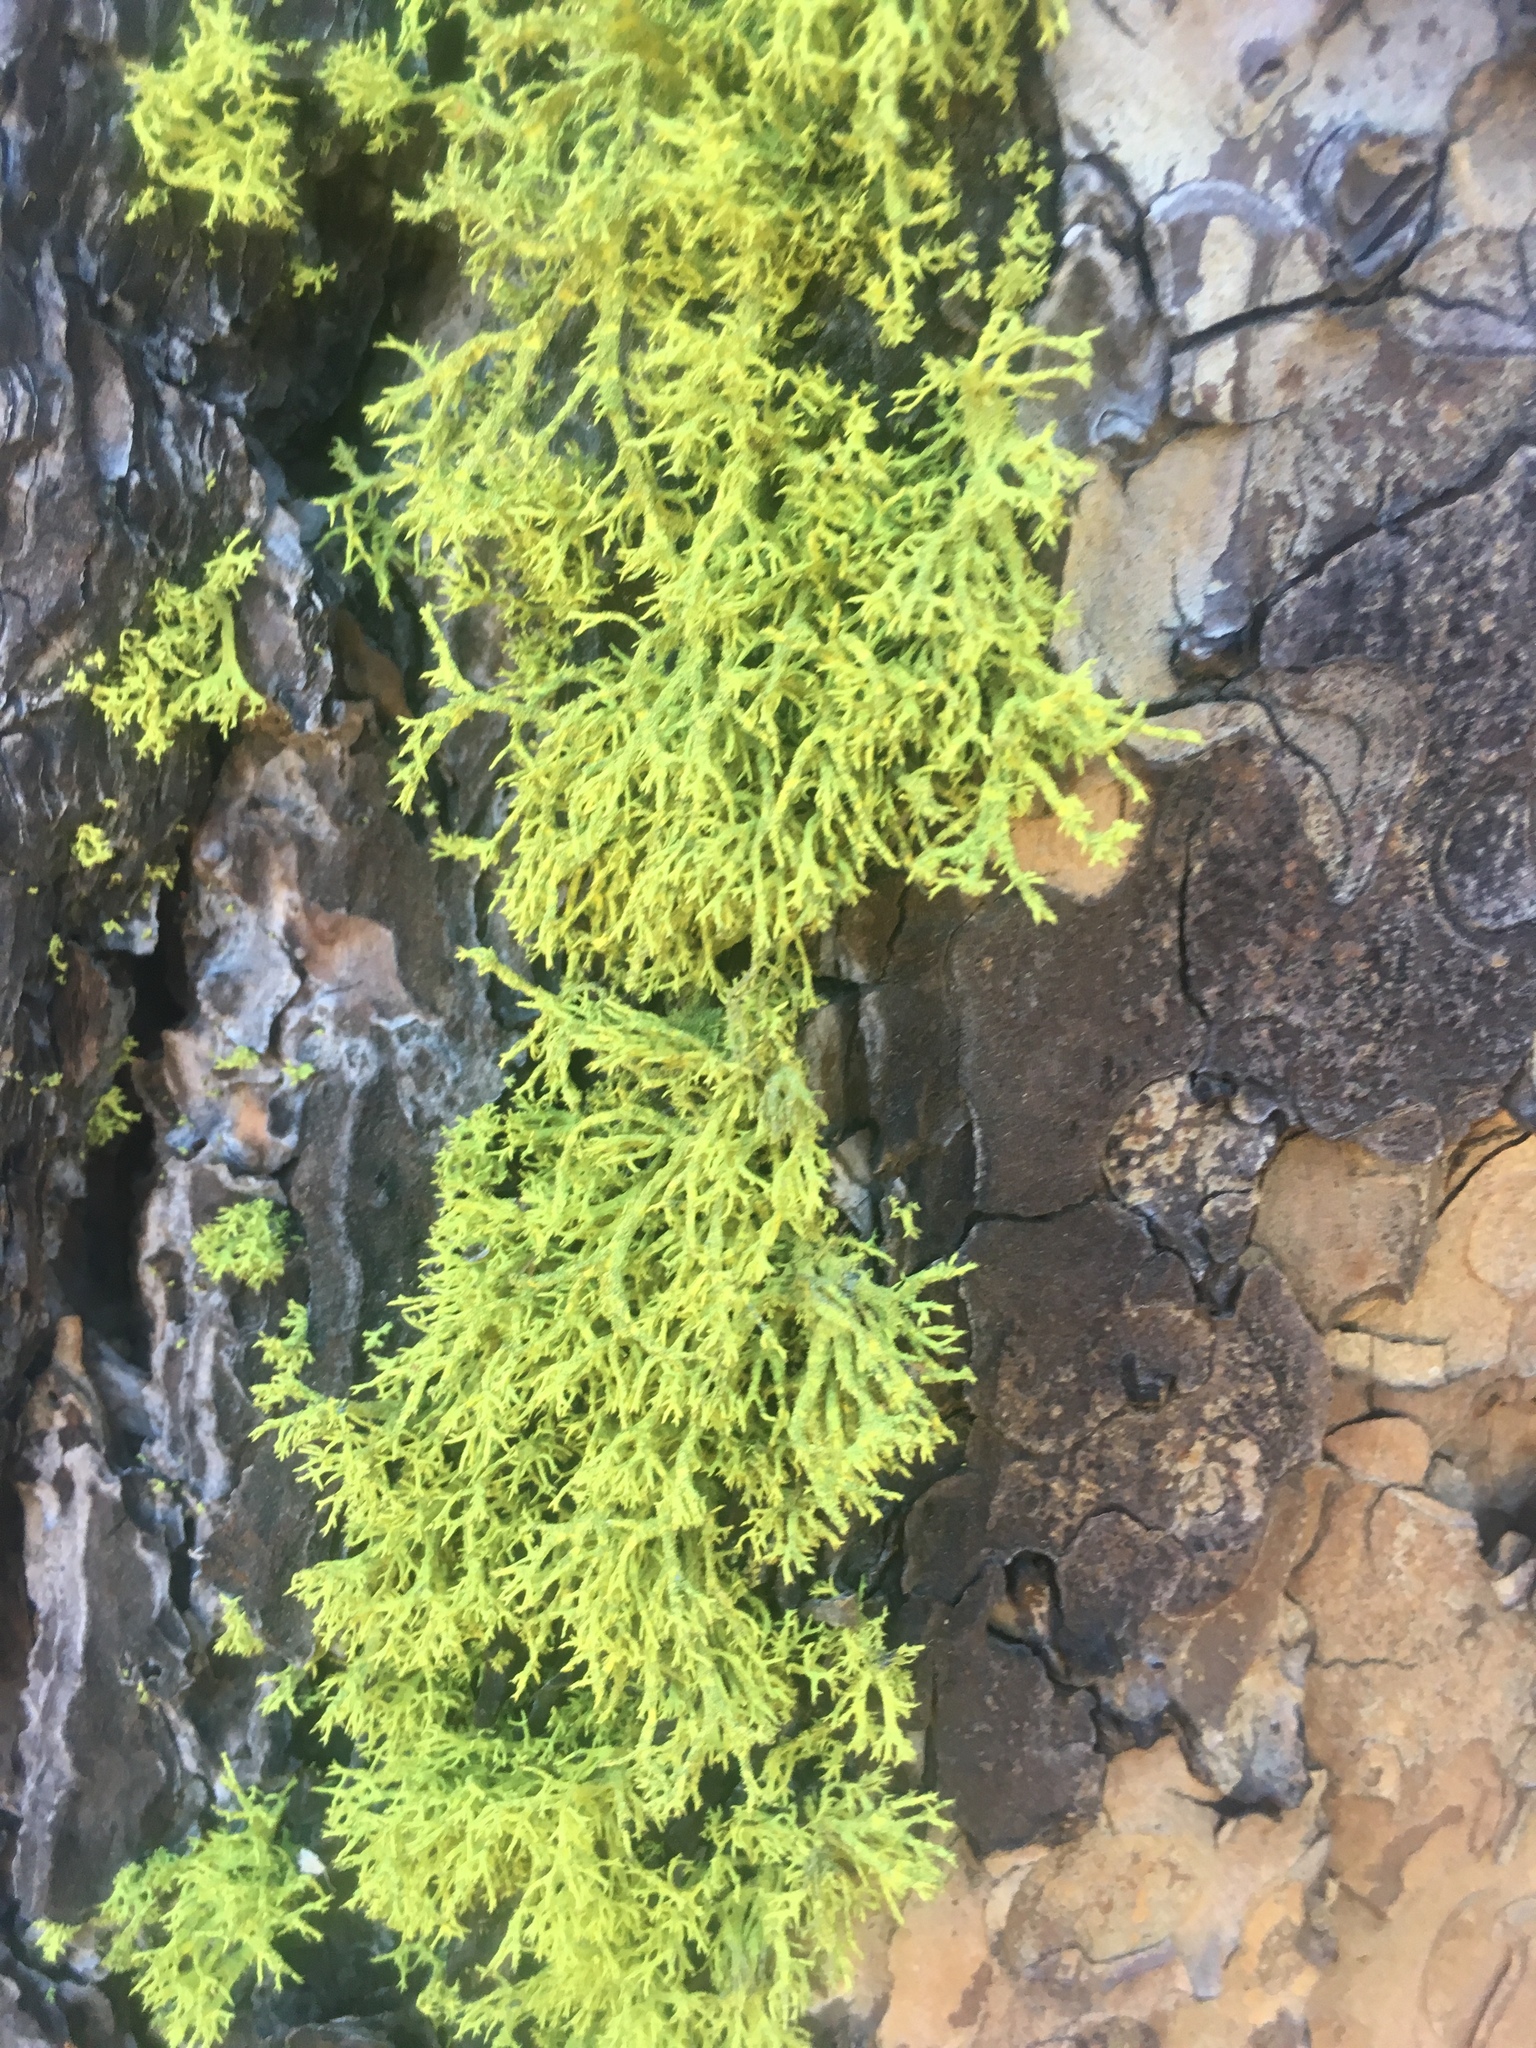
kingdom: Fungi
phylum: Ascomycota
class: Lecanoromycetes
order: Lecanorales
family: Parmeliaceae
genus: Letharia
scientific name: Letharia vulpina
